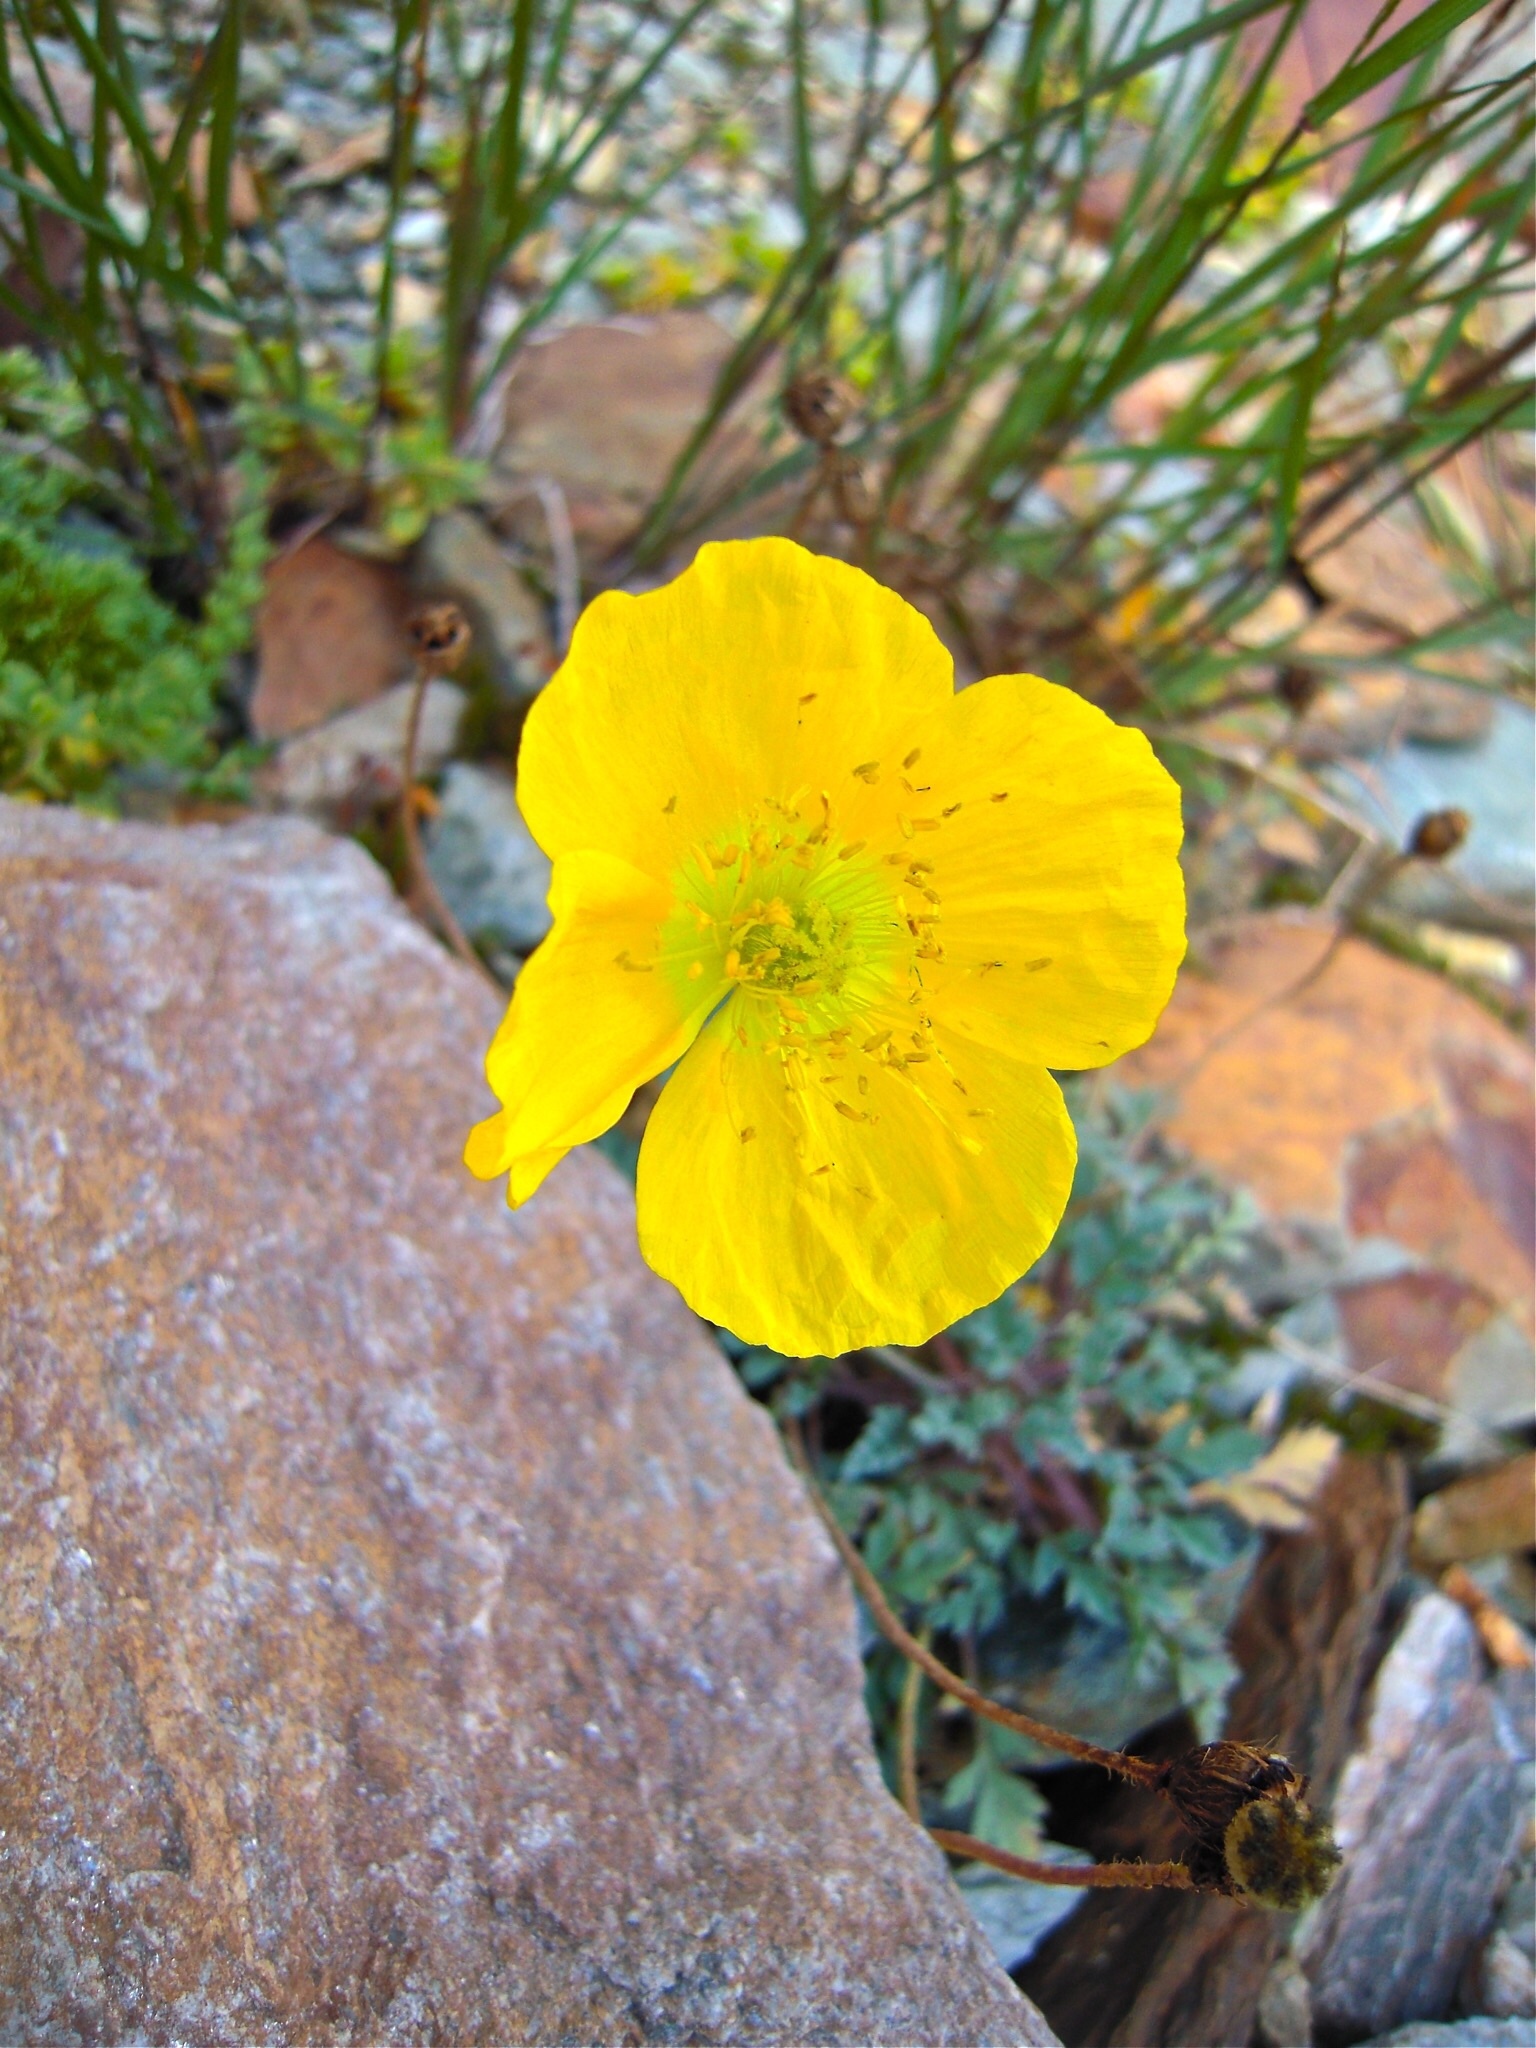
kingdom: Plantae
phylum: Tracheophyta
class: Magnoliopsida
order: Ranunculales
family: Papaveraceae
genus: Papaver
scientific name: Papaver alpinum
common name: Austrian poppy
